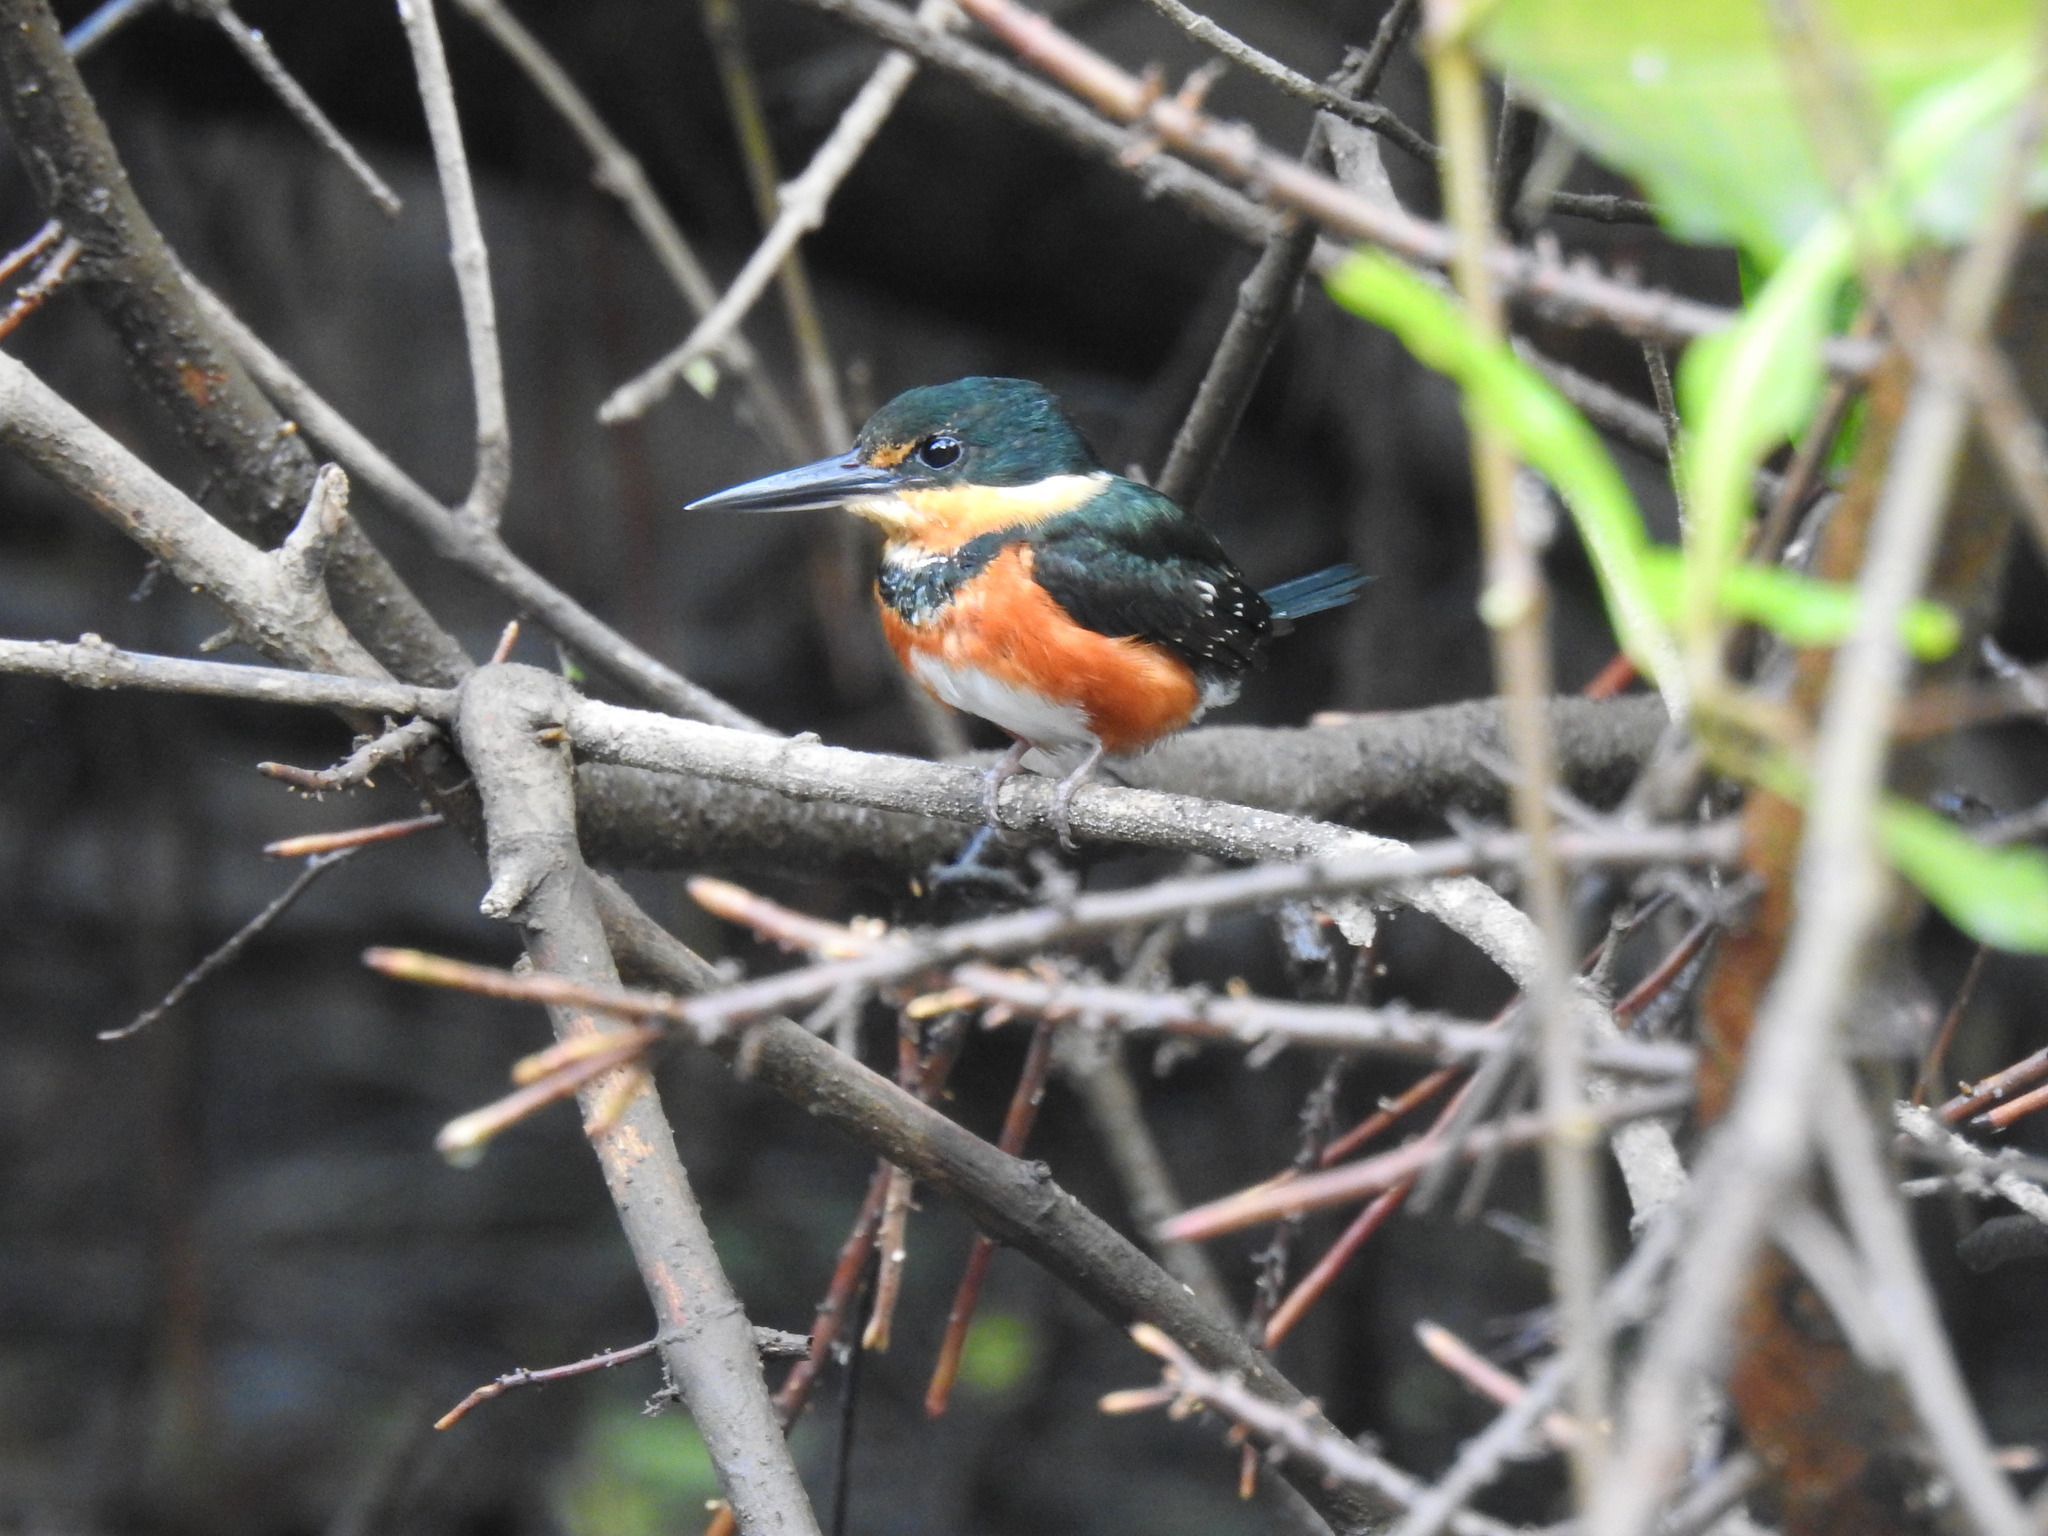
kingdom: Animalia
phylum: Chordata
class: Aves
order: Coraciiformes
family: Alcedinidae
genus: Chloroceryle
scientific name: Chloroceryle aenea
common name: American pygmy kingfisher
